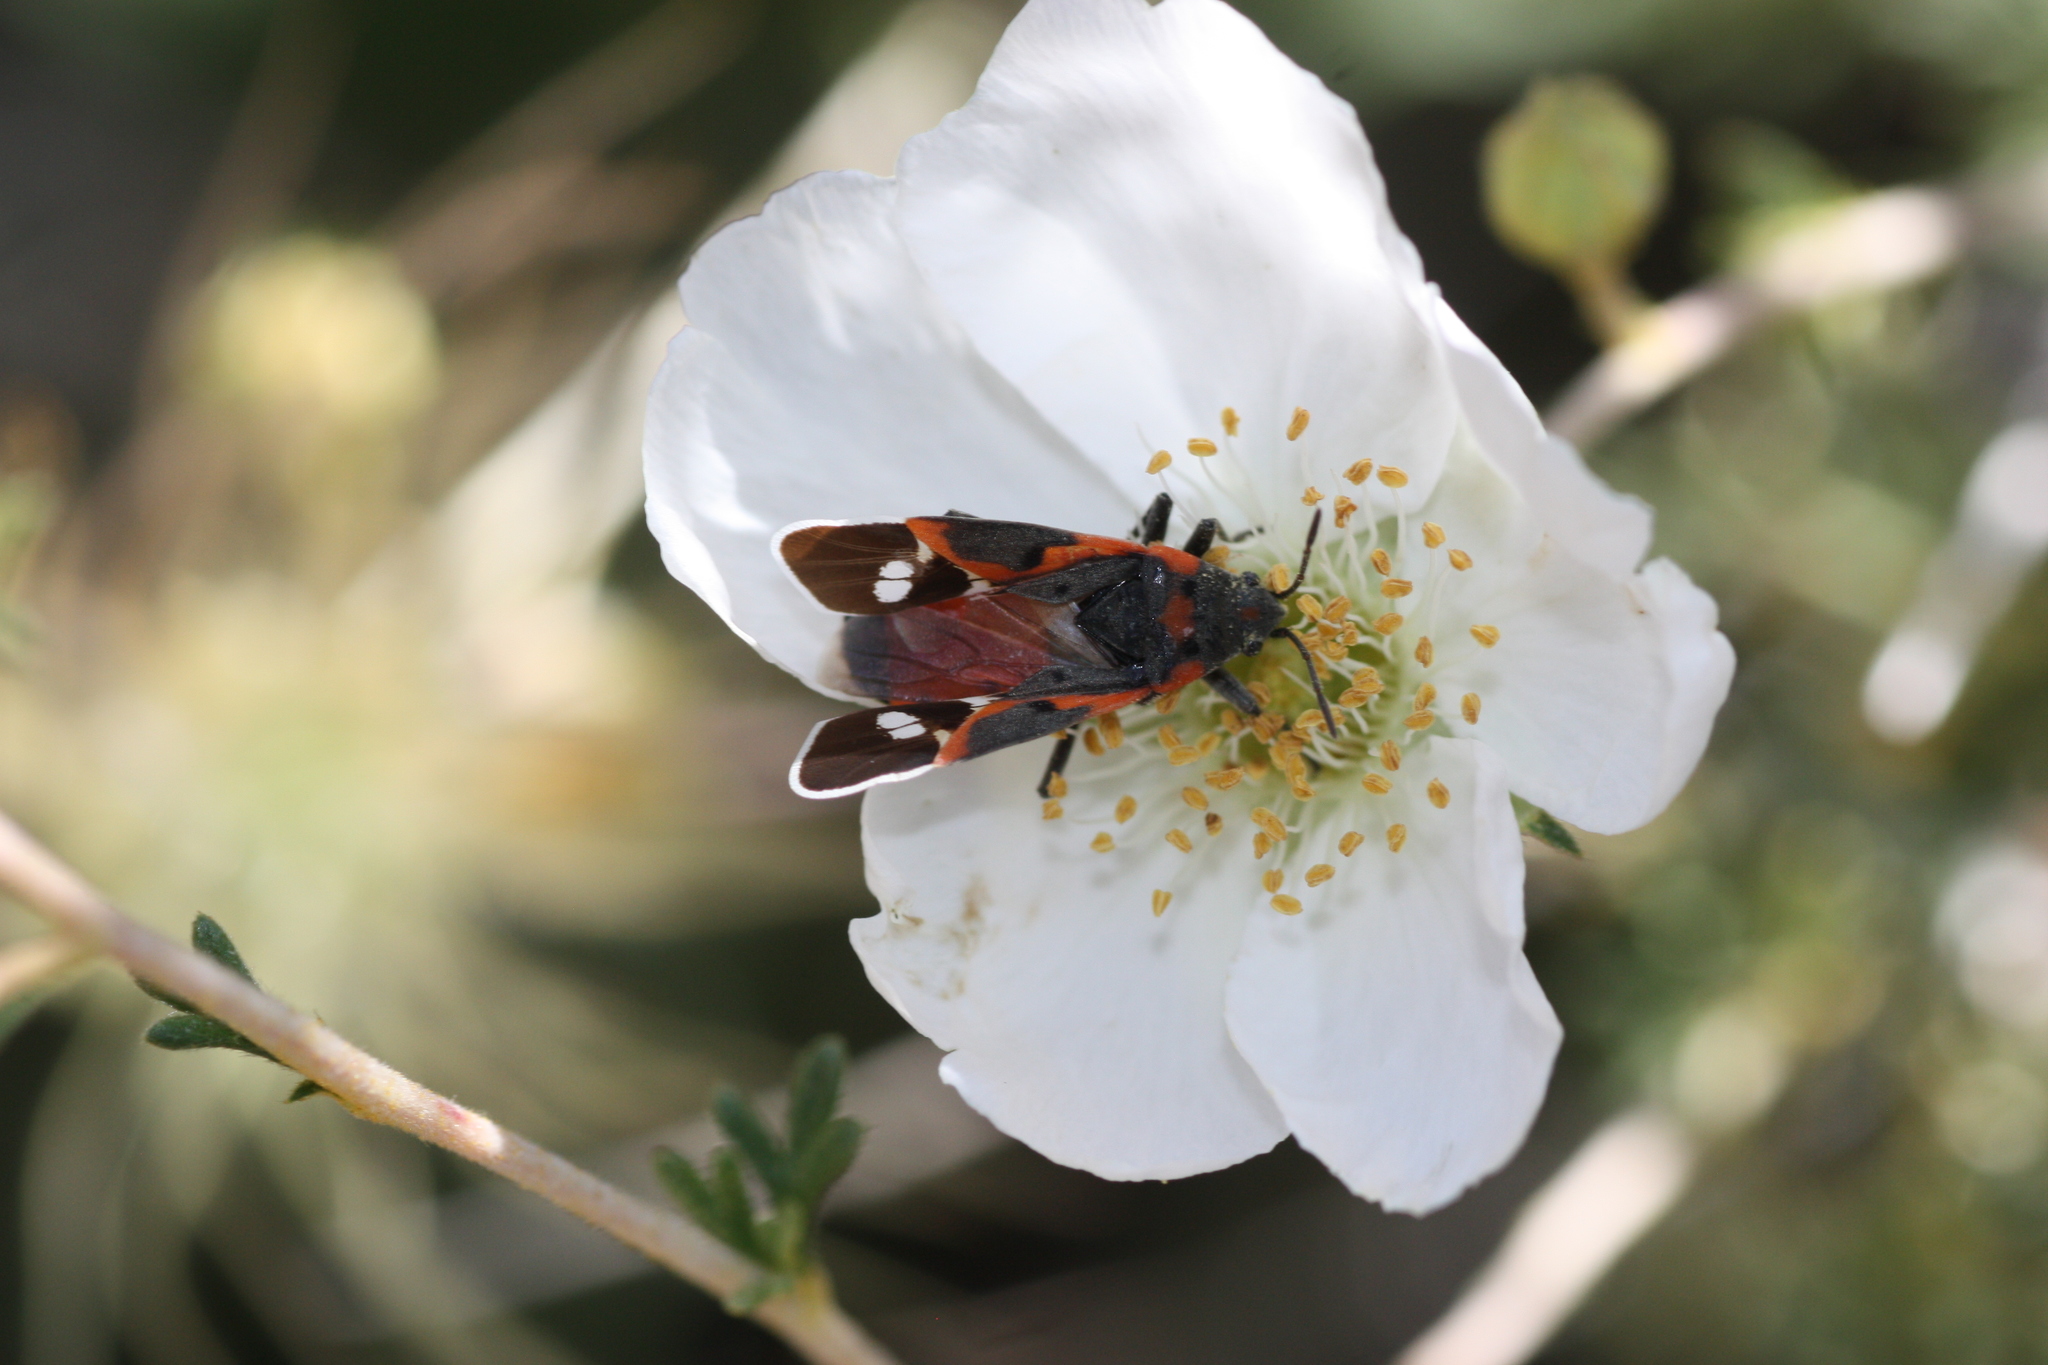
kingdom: Animalia
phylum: Arthropoda
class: Insecta
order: Hemiptera
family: Lygaeidae
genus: Lygaeus
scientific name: Lygaeus kalmii
